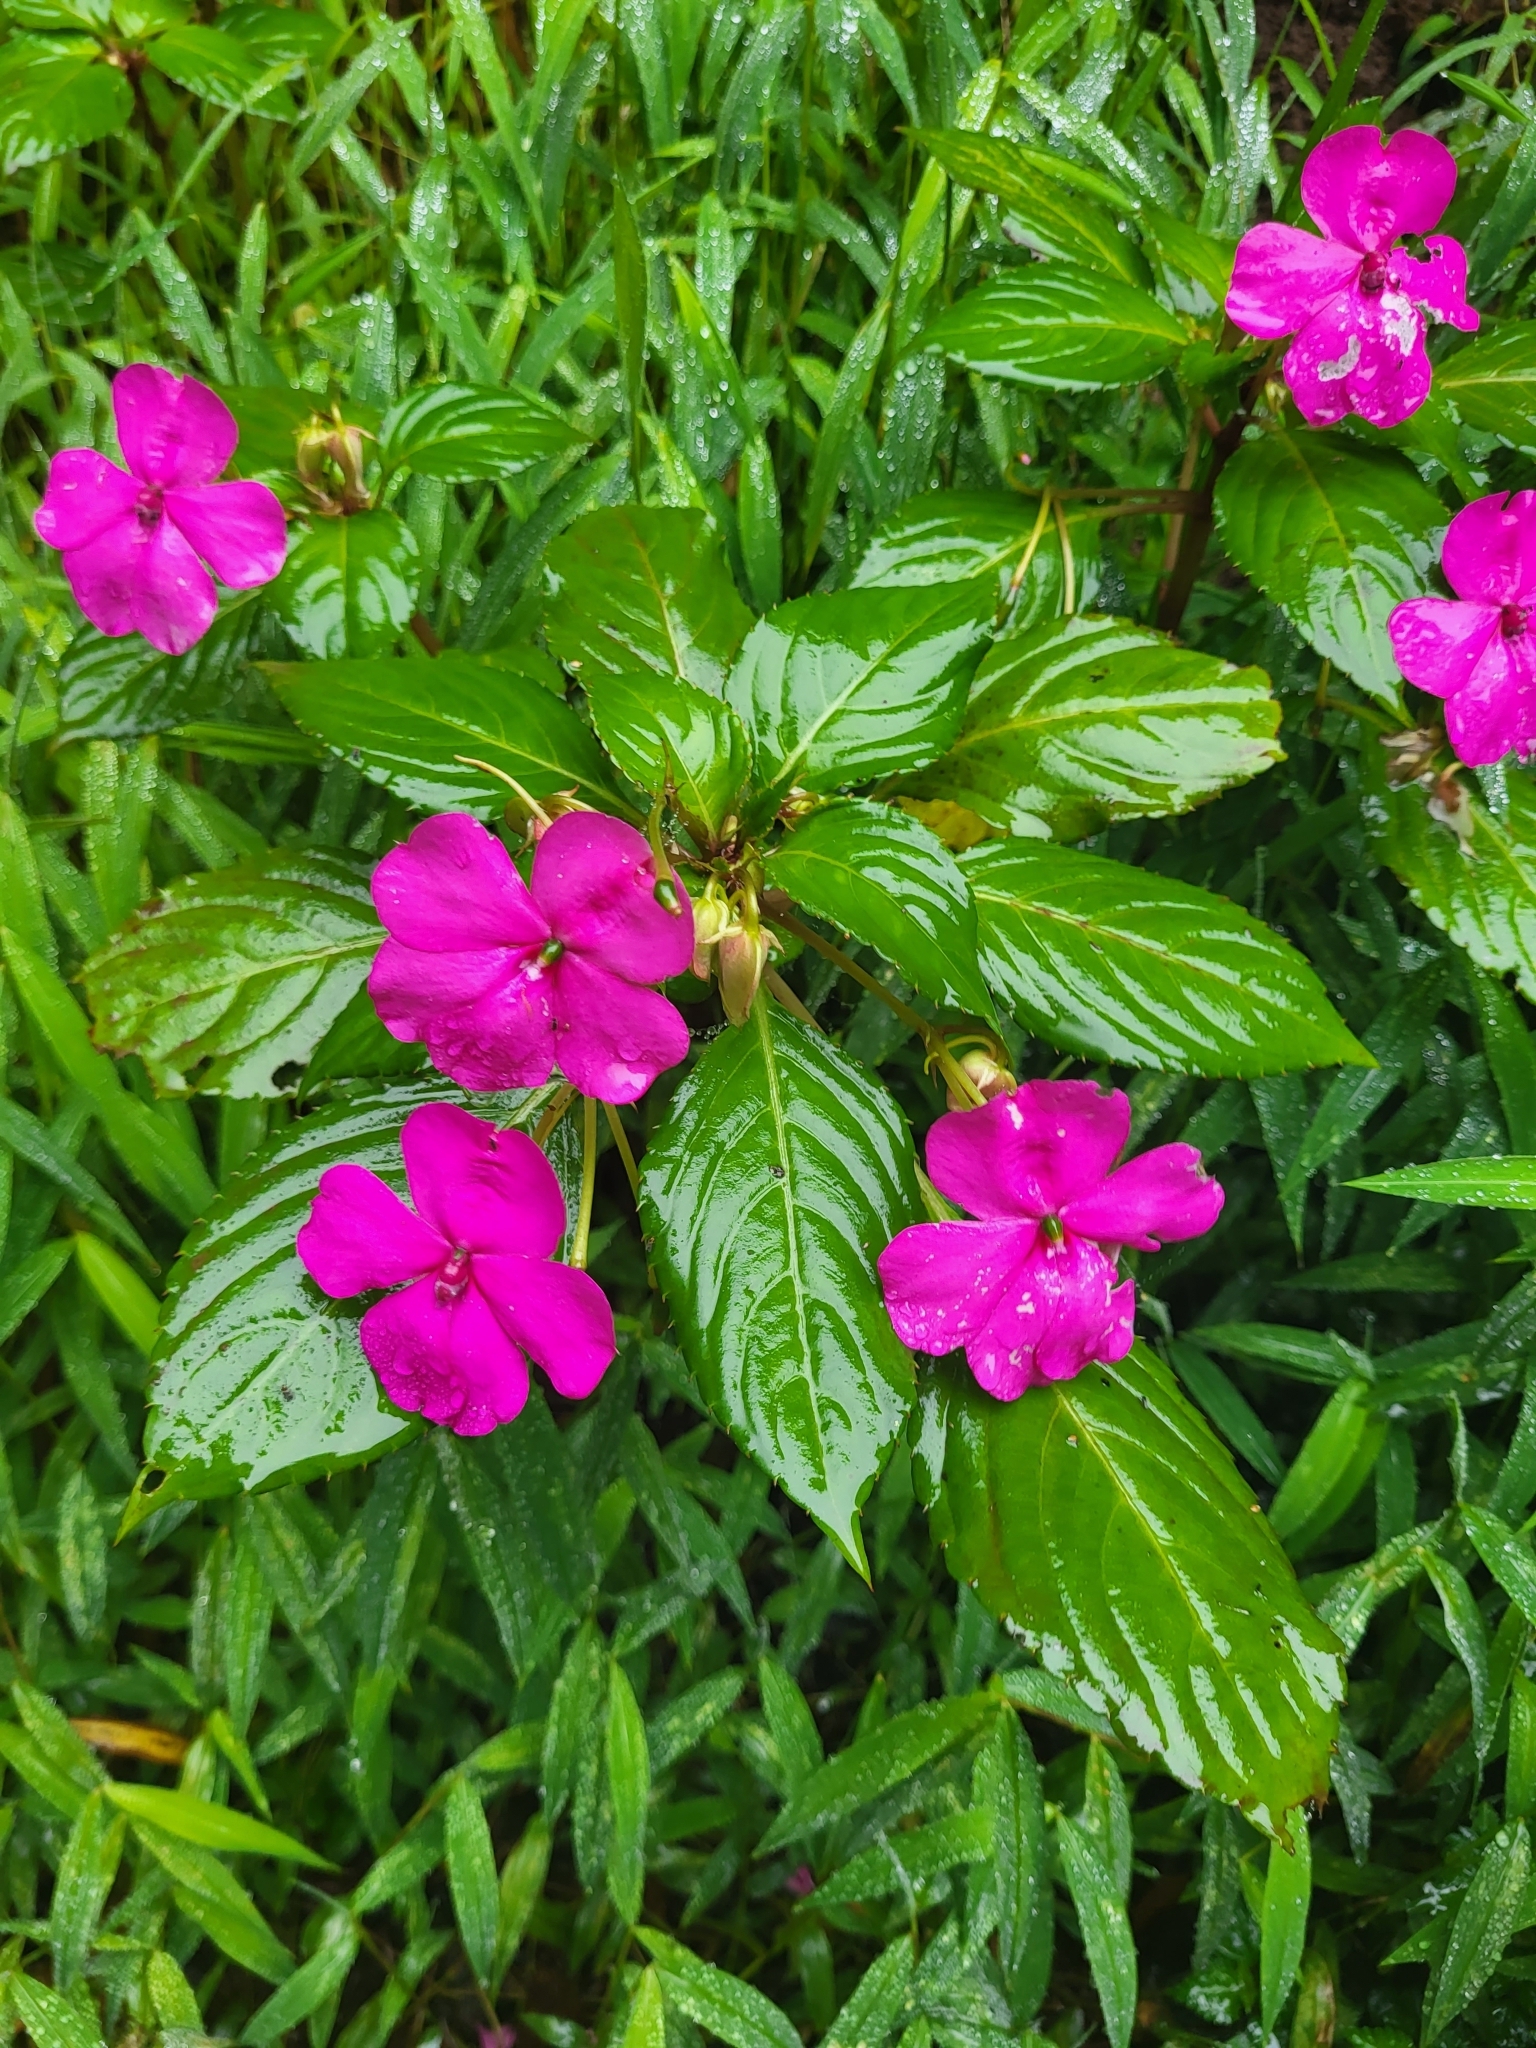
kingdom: Plantae
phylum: Tracheophyta
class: Magnoliopsida
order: Ericales
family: Balsaminaceae
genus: Impatiens
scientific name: Impatiens walleriana
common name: Buzzy lizzy
